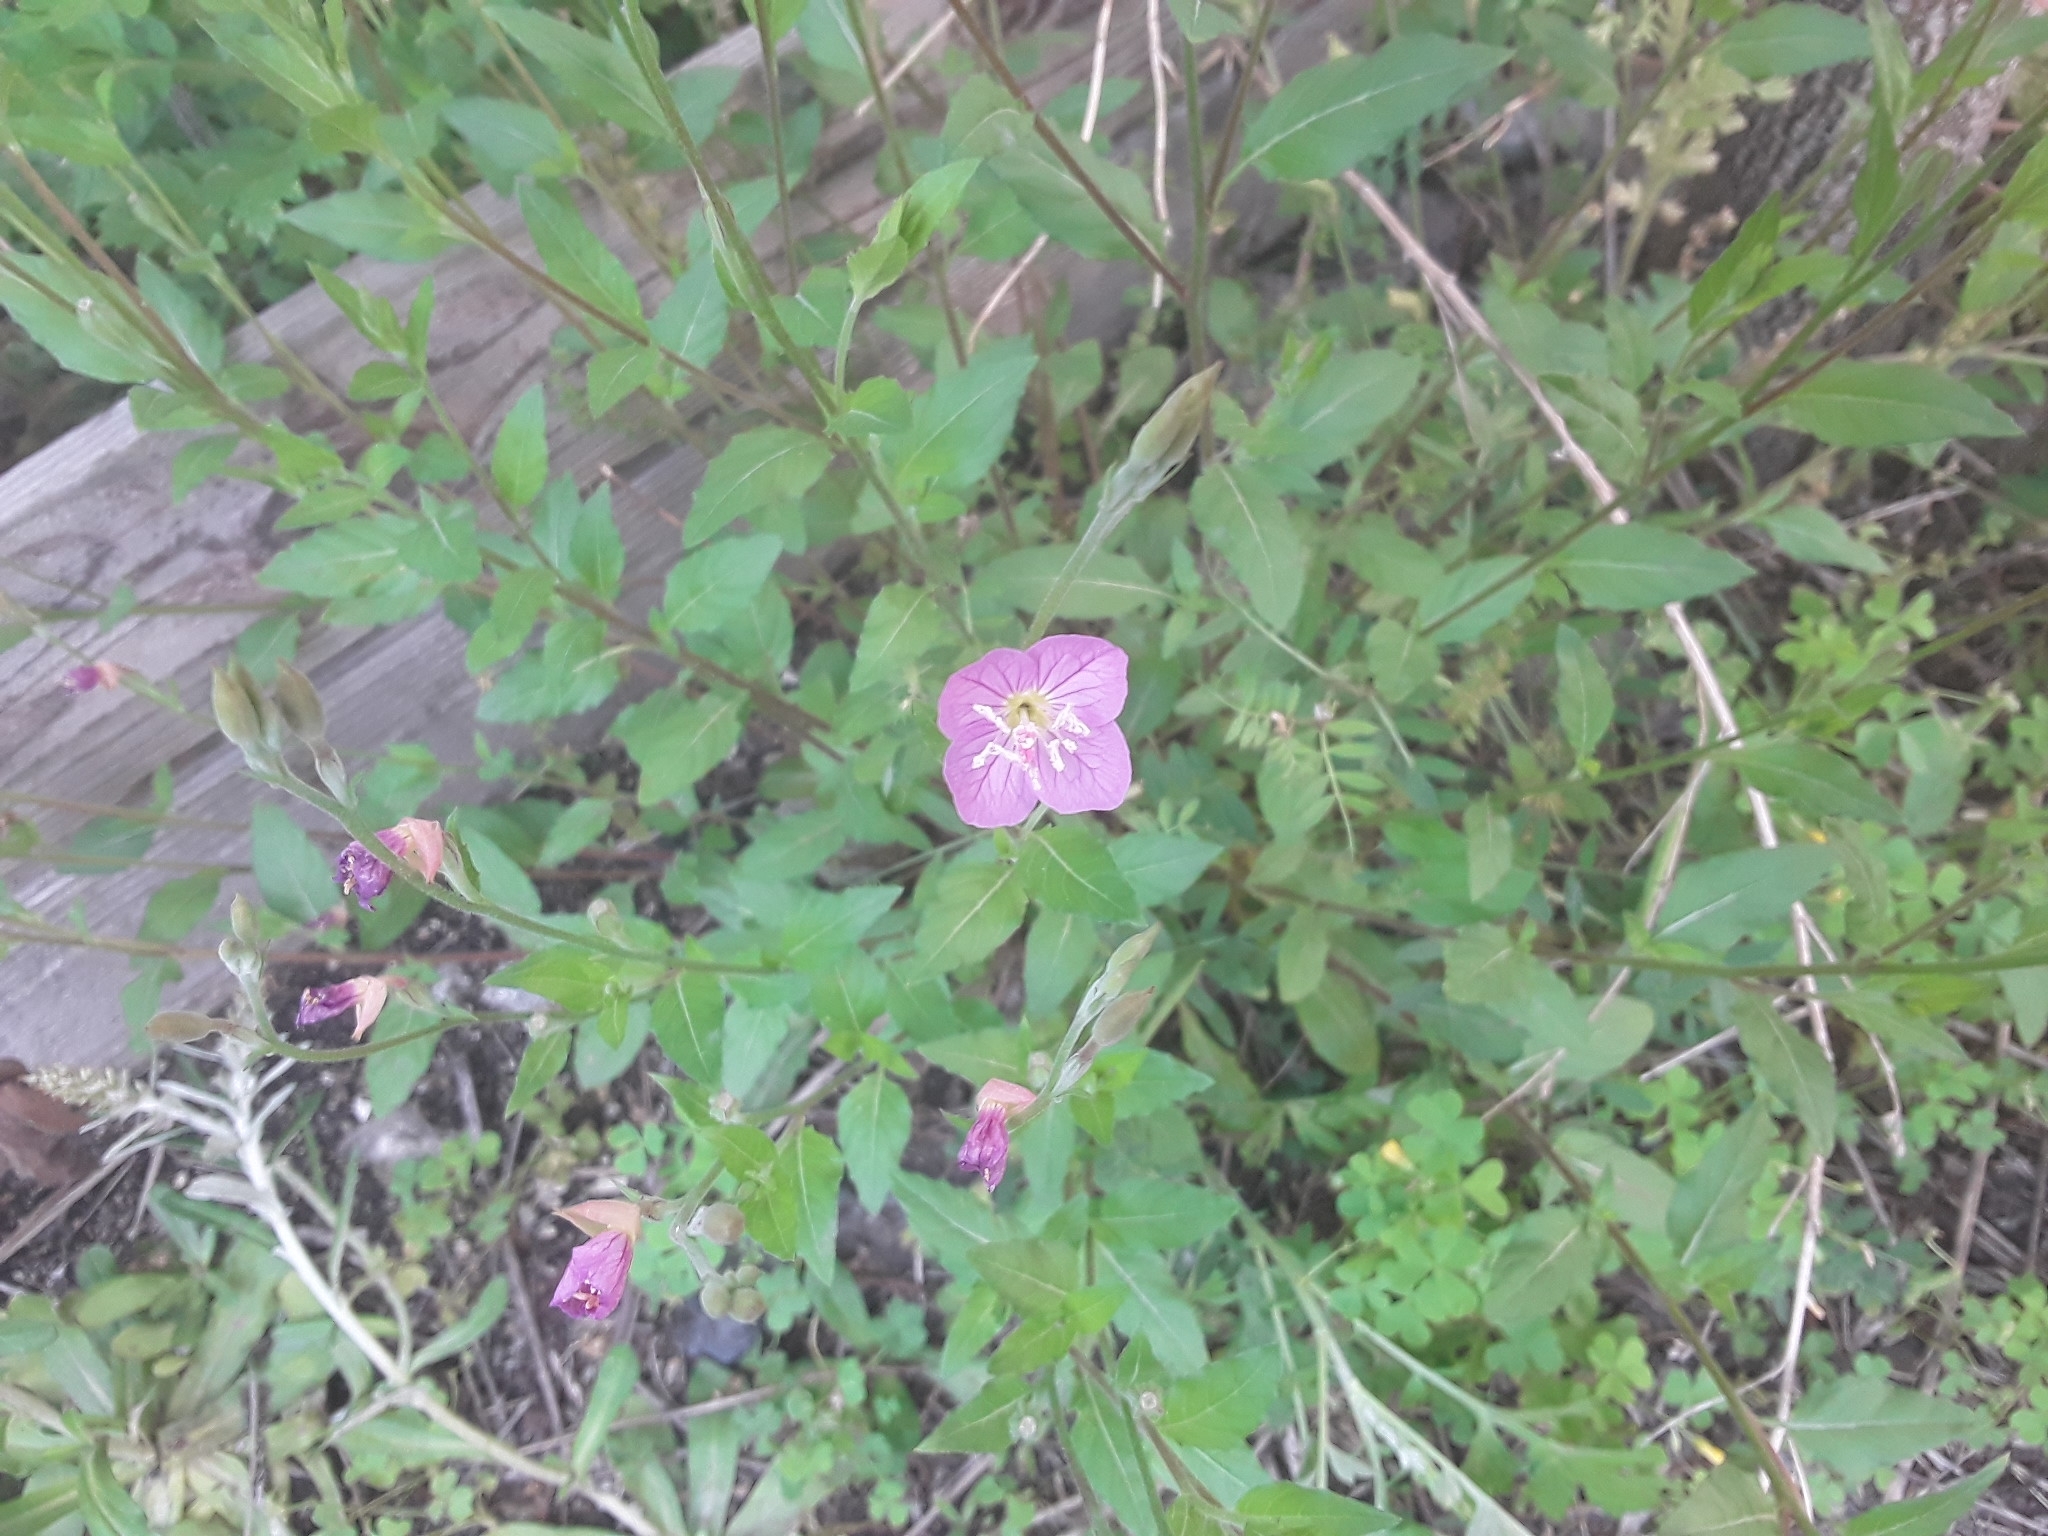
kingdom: Plantae
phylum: Tracheophyta
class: Magnoliopsida
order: Myrtales
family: Onagraceae
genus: Oenothera
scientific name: Oenothera rosea
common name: Rosy evening-primrose
